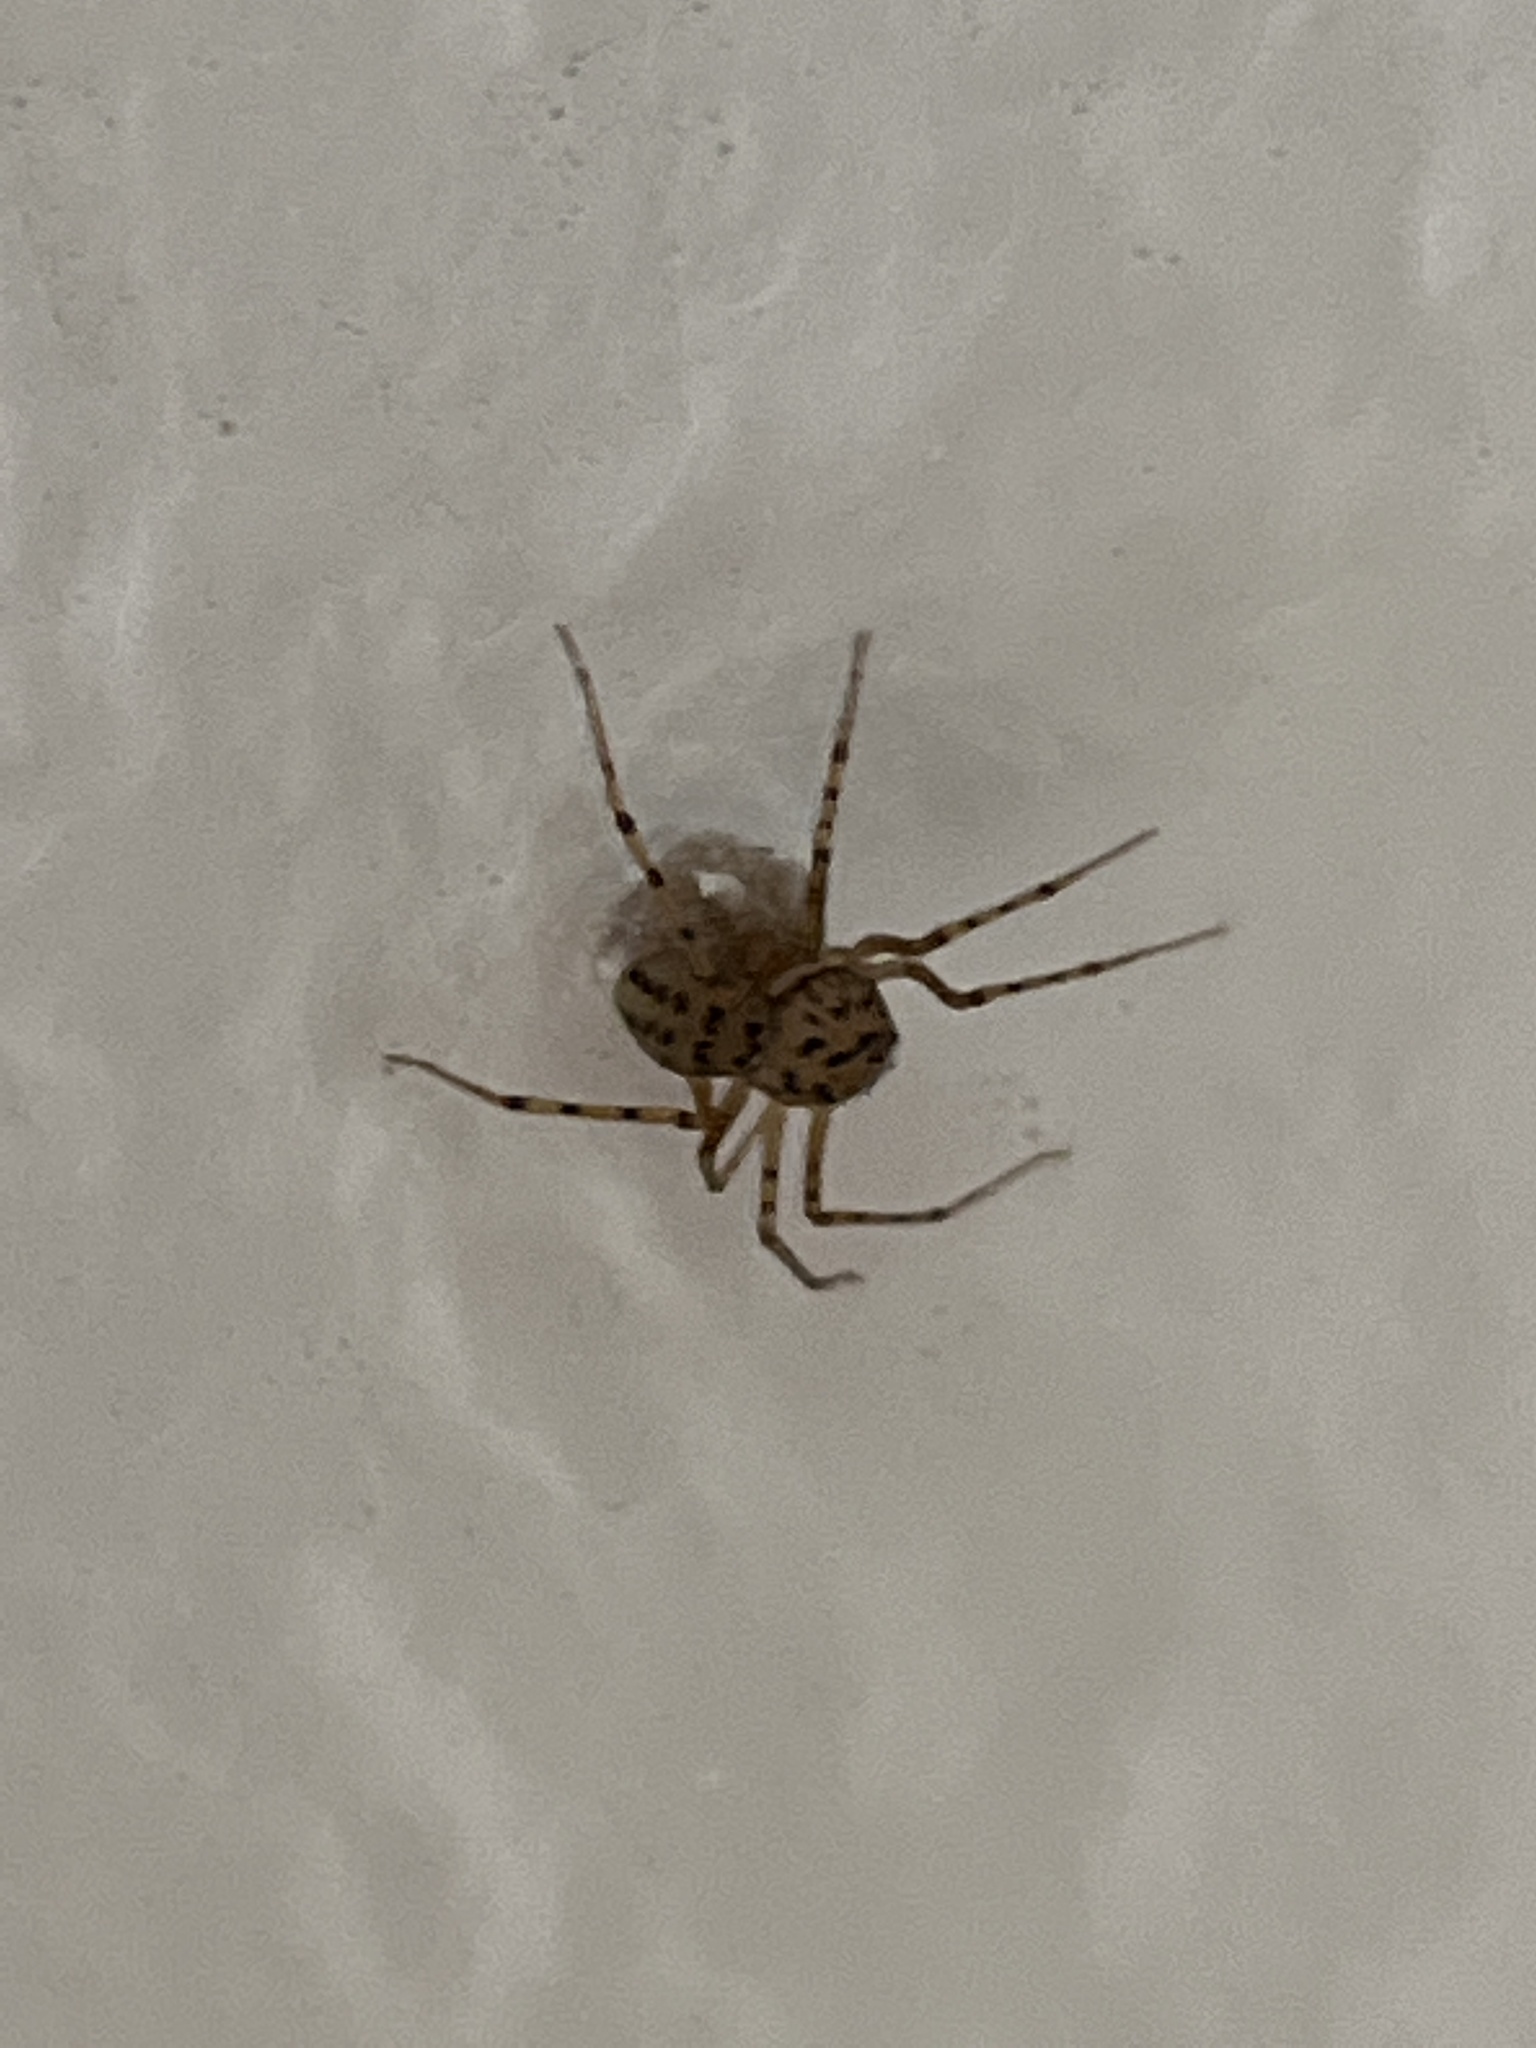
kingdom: Animalia
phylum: Arthropoda
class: Arachnida
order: Araneae
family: Scytodidae
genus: Scytodes
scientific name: Scytodes thoracica
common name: Spitting spider
